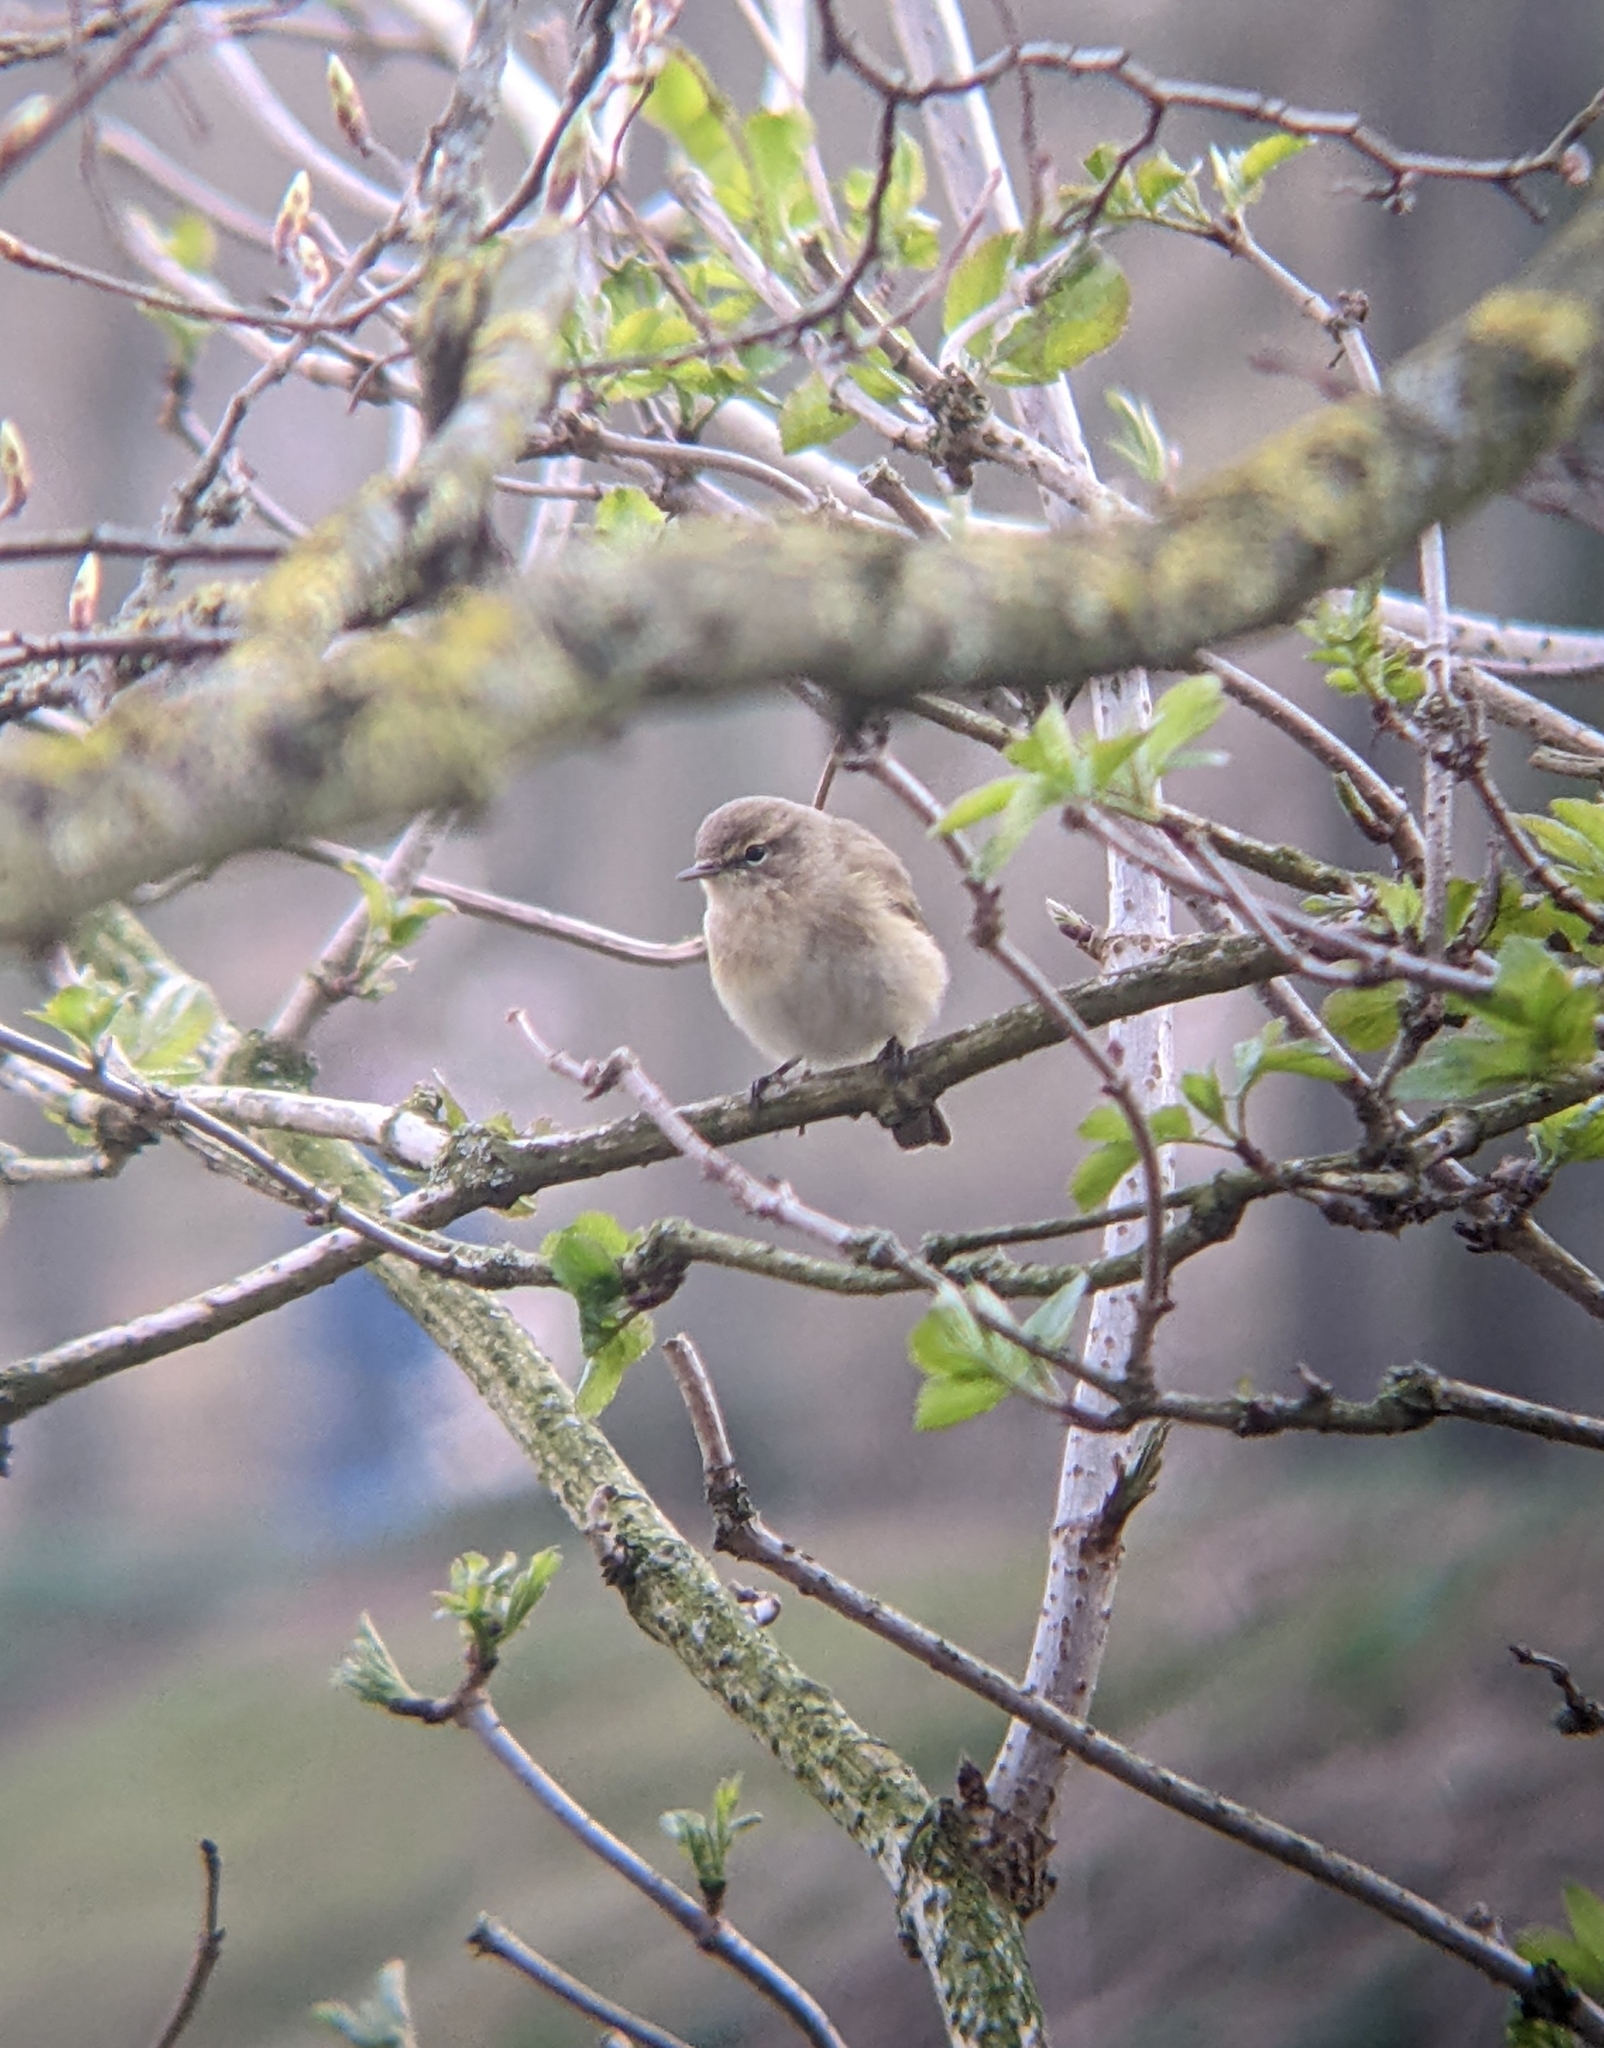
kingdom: Animalia
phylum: Chordata
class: Aves
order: Passeriformes
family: Phylloscopidae
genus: Phylloscopus
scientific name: Phylloscopus collybita
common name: Common chiffchaff
